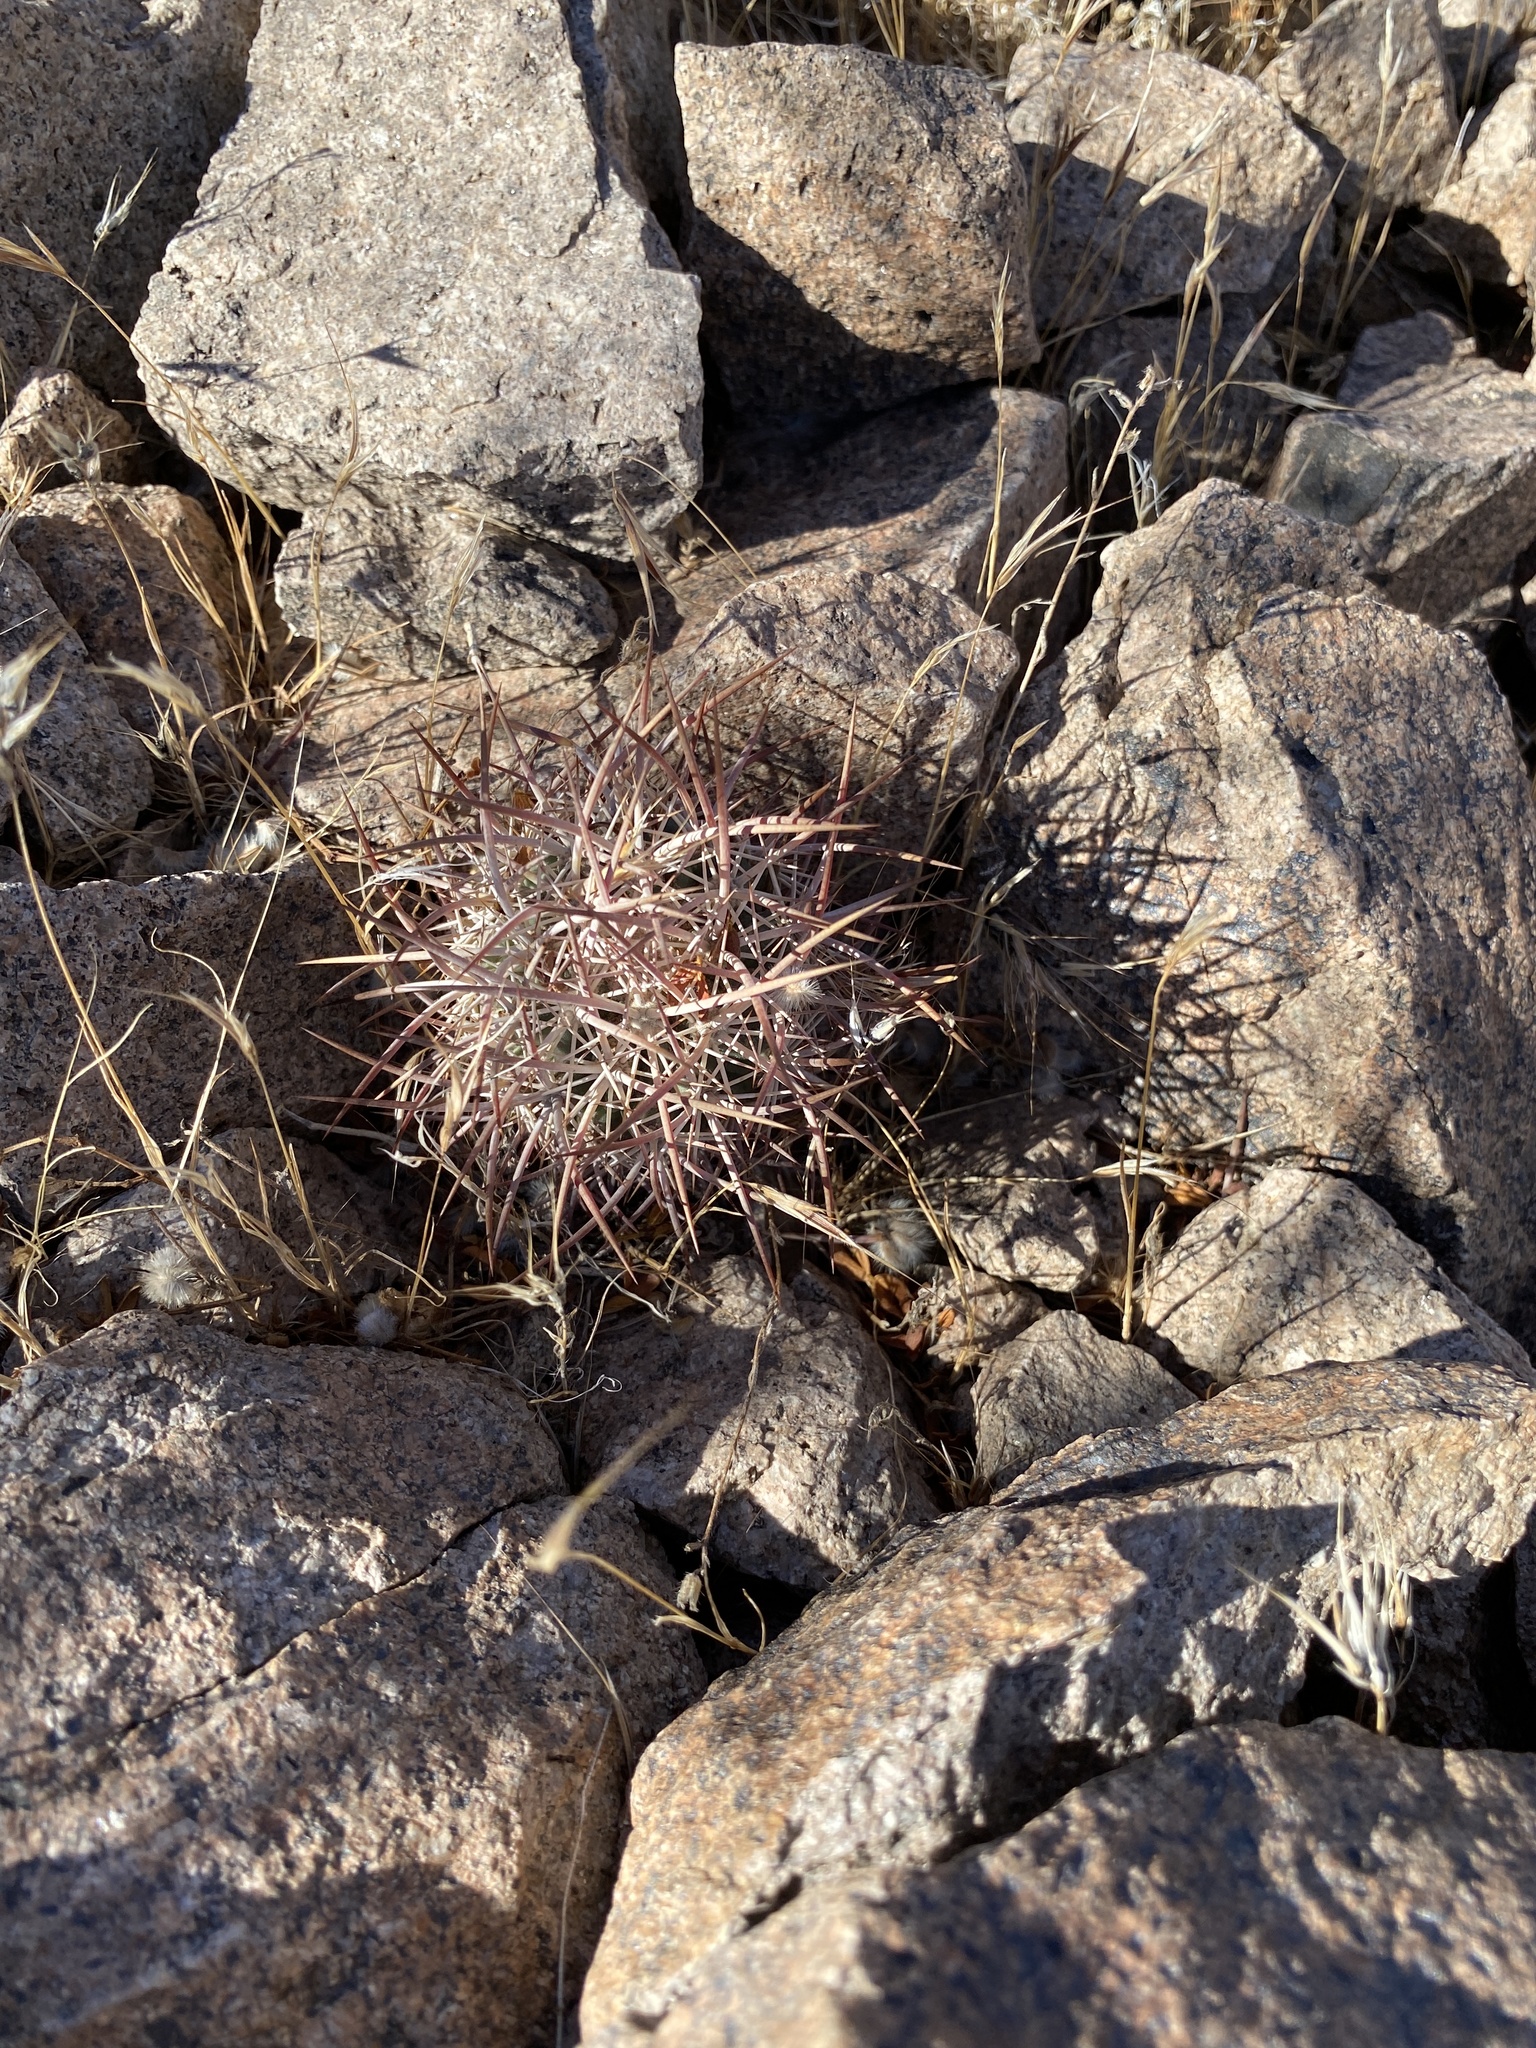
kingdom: Plantae
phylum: Tracheophyta
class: Magnoliopsida
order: Caryophyllales
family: Cactaceae
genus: Sclerocactus
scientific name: Sclerocactus johnsonii
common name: Eight-spine fishhook cactus
